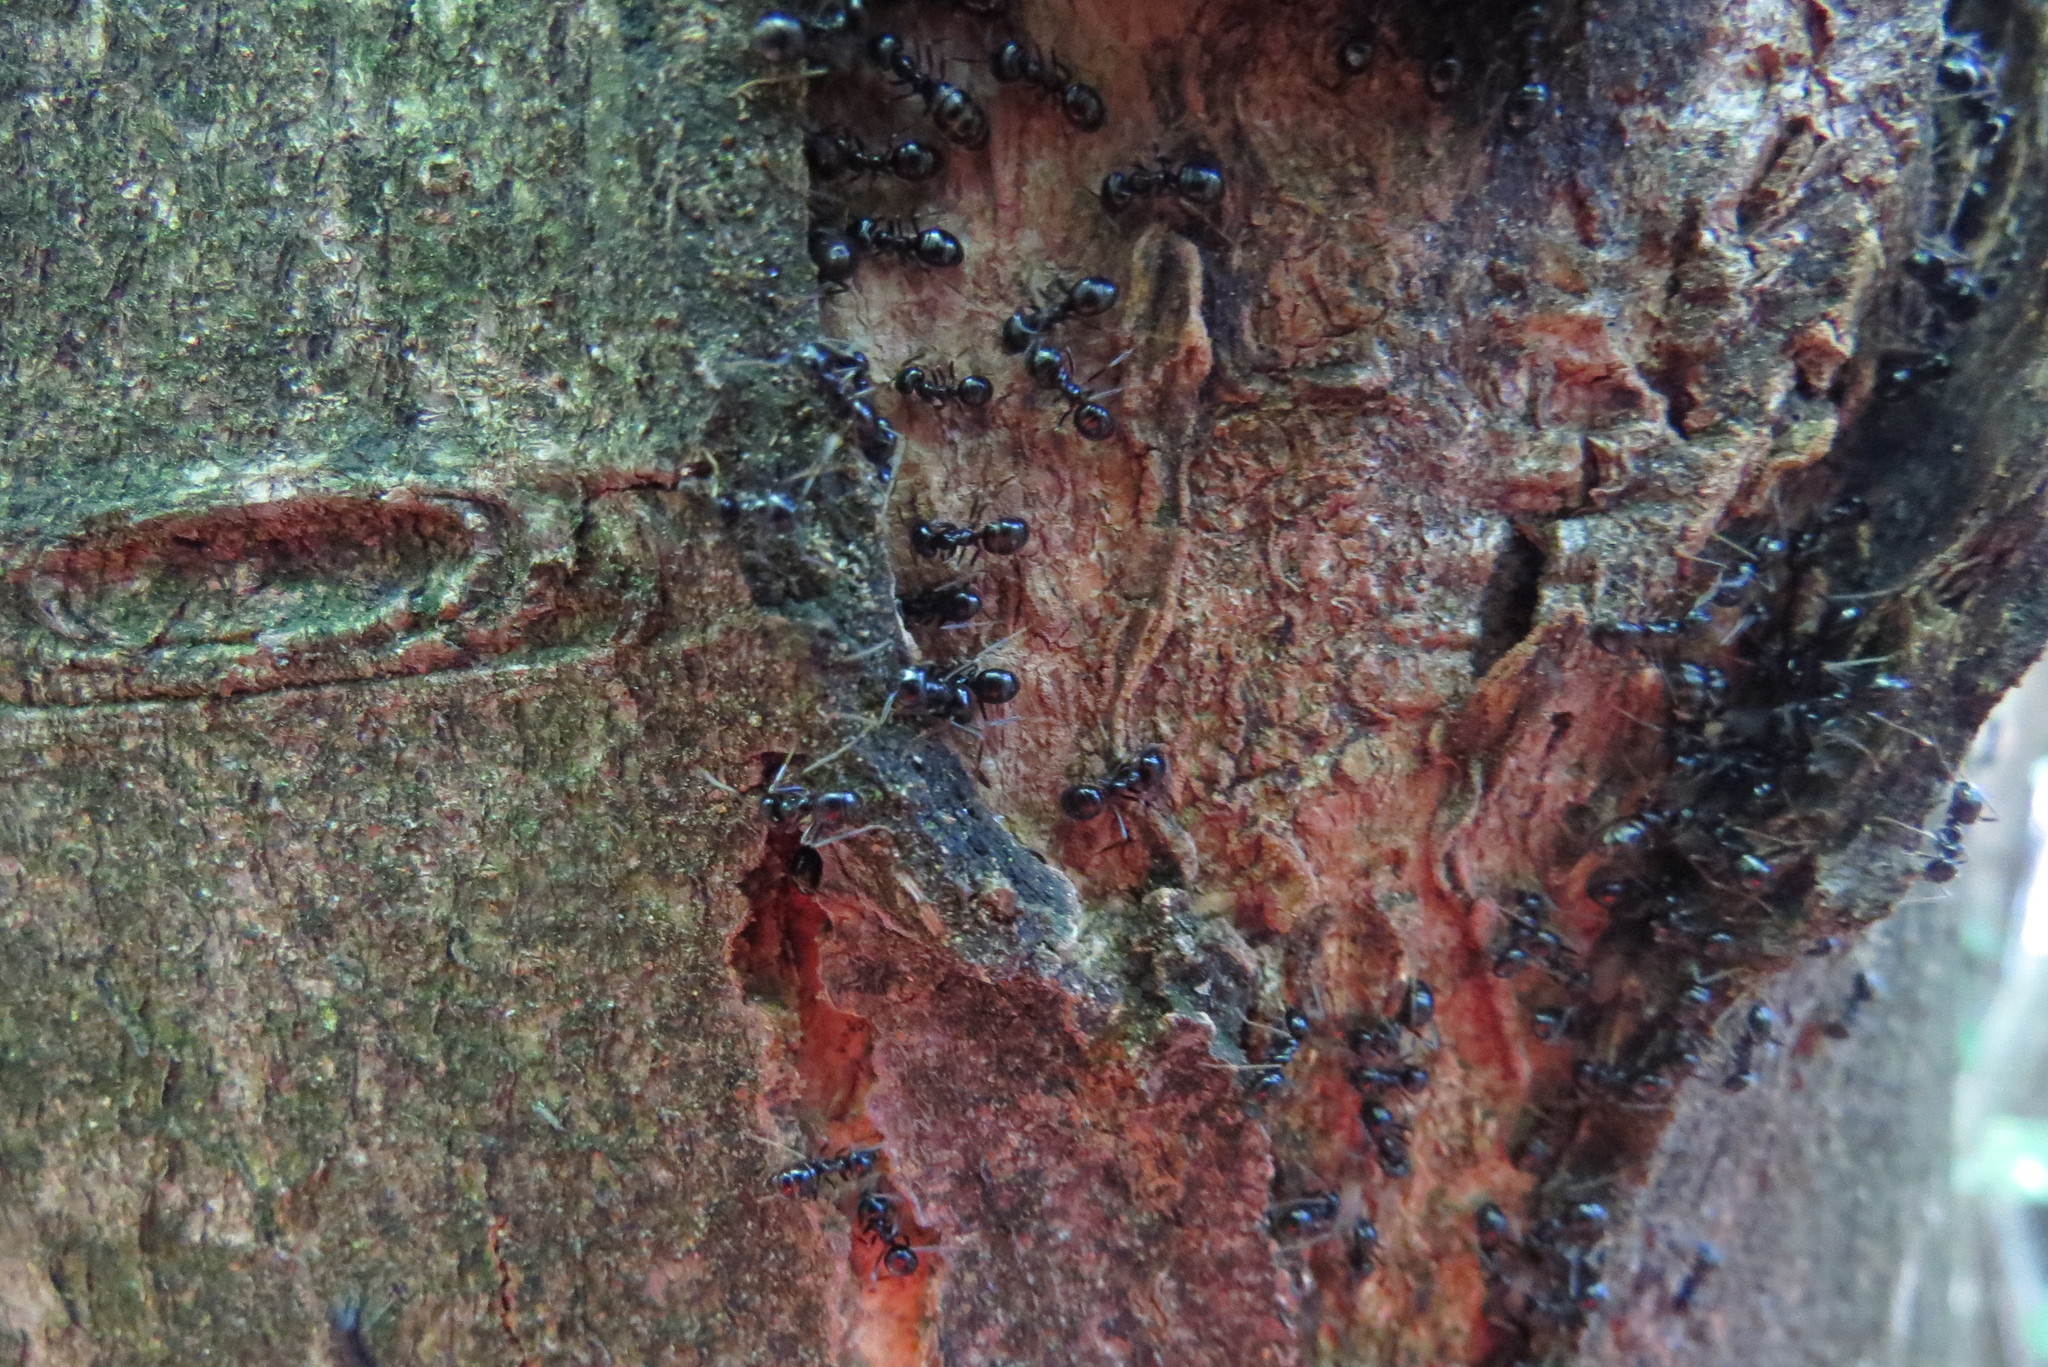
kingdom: Animalia
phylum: Arthropoda
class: Insecta
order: Hymenoptera
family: Formicidae
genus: Lasius
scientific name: Lasius fuliginosus
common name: Jet ant
